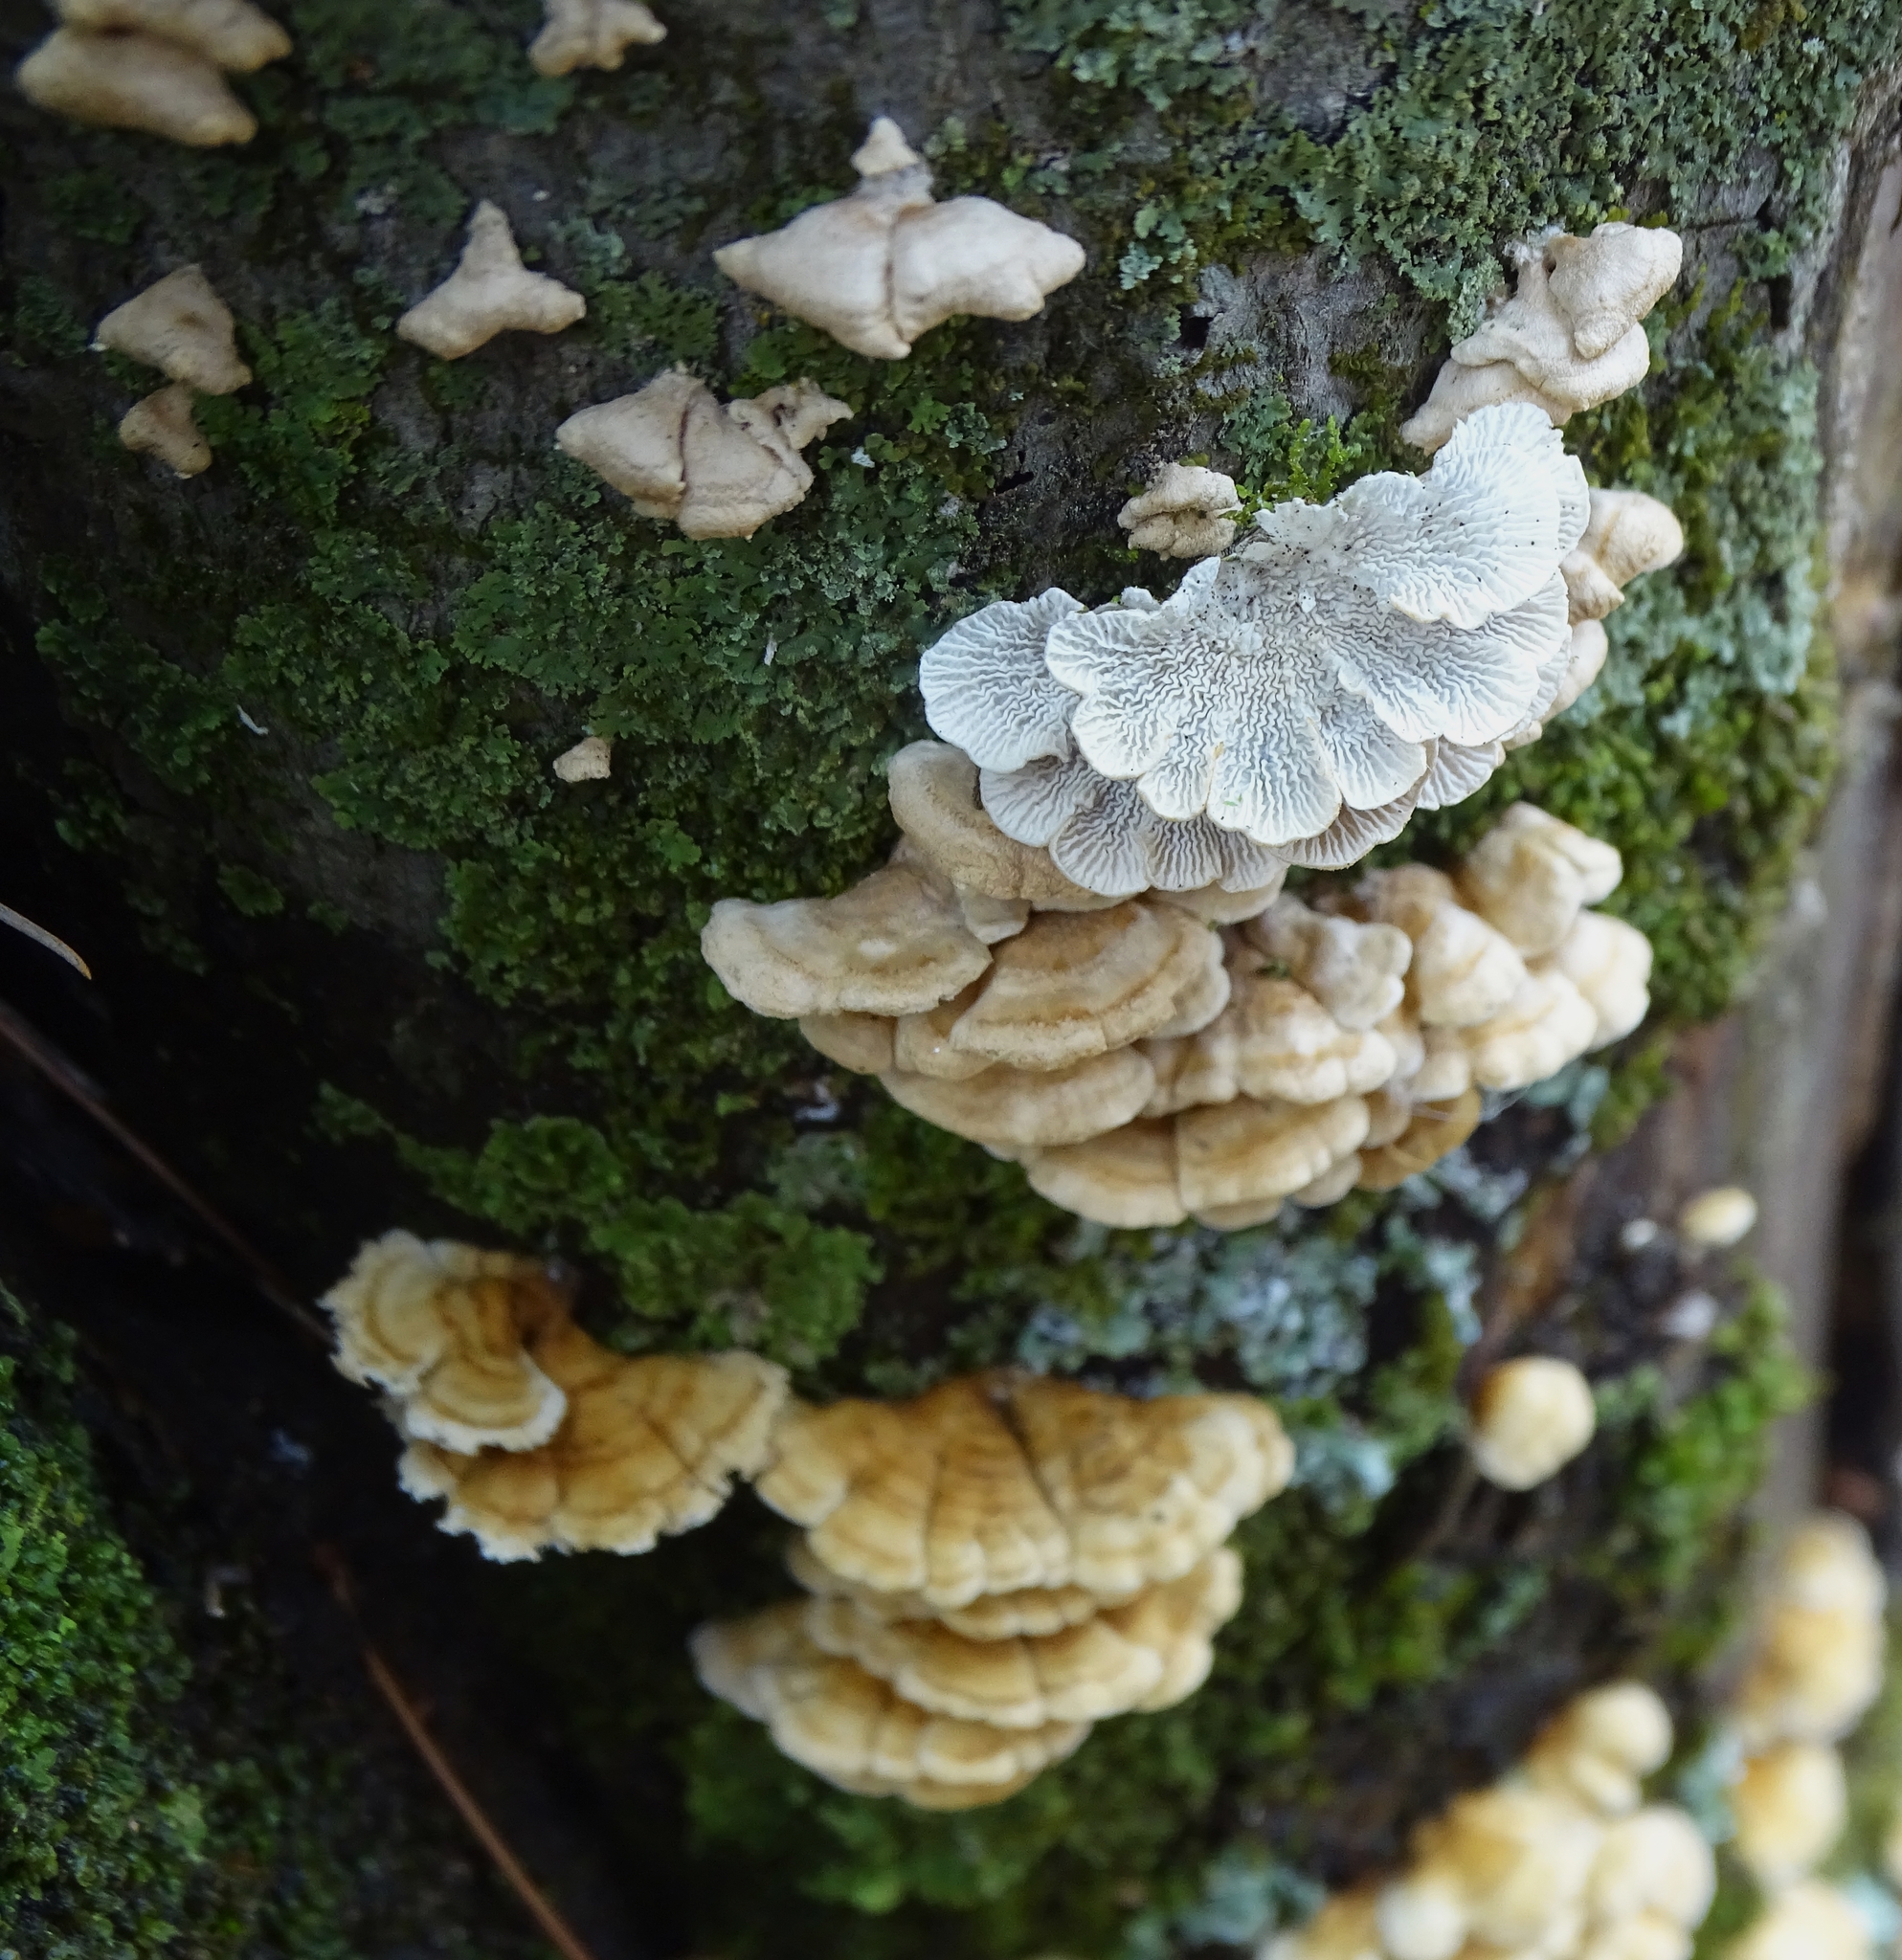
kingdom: Fungi
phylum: Basidiomycota
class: Agaricomycetes
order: Amylocorticiales
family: Amylocorticiaceae
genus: Plicaturopsis
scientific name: Plicaturopsis crispa
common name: Crimped gill
